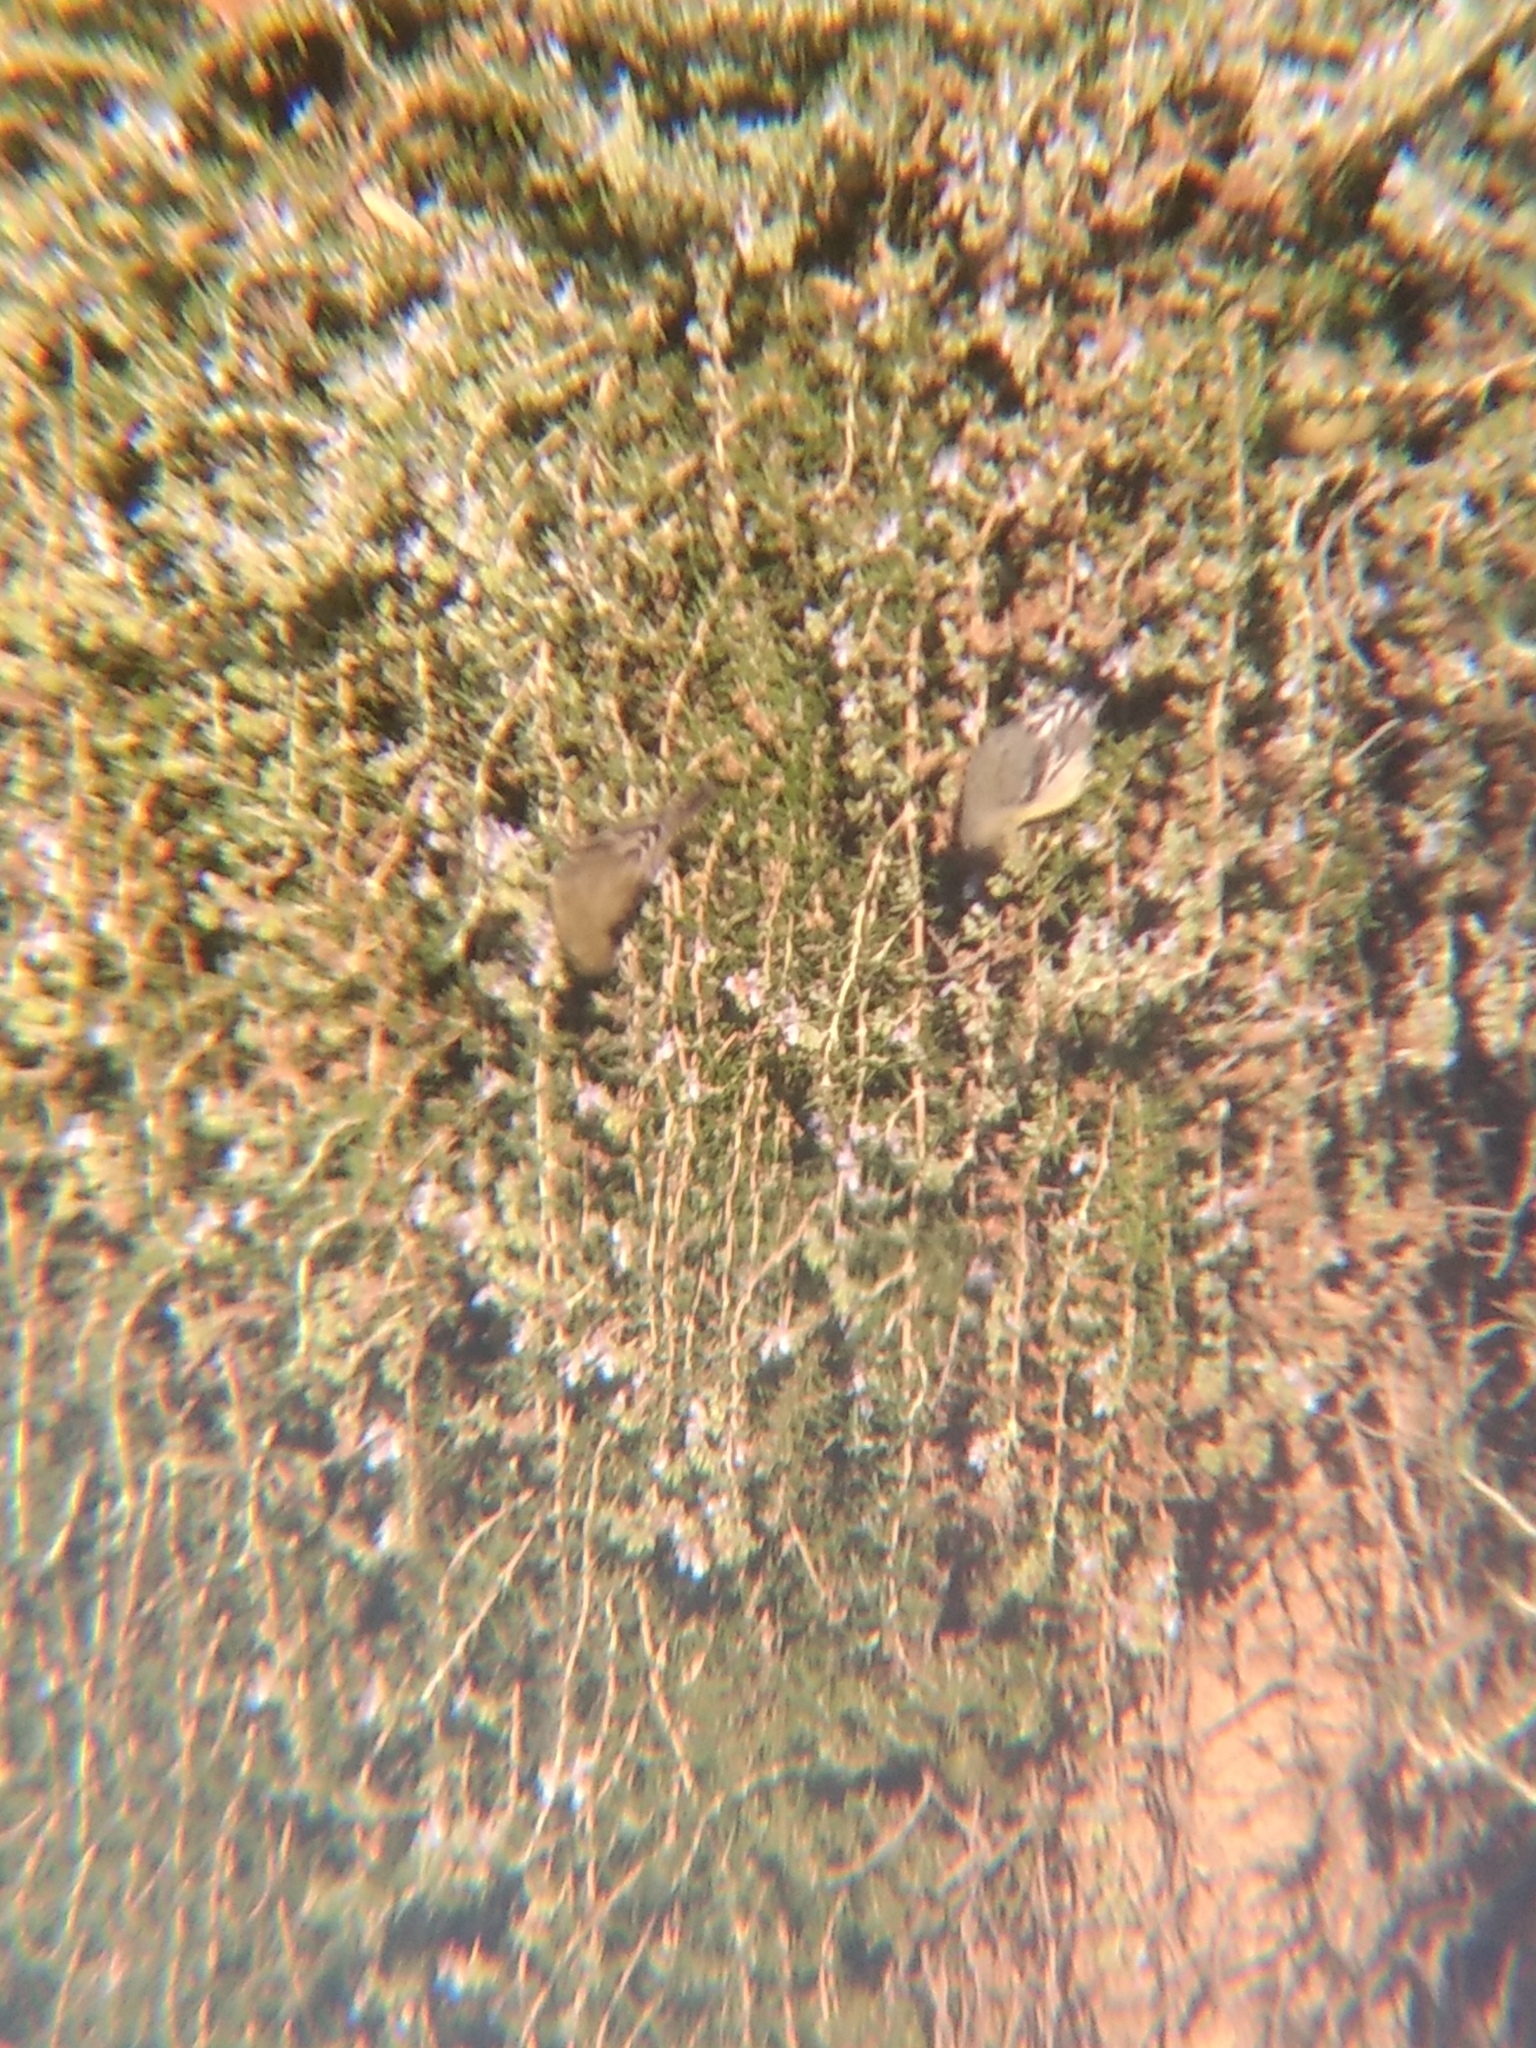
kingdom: Animalia
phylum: Chordata
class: Aves
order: Passeriformes
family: Fringillidae
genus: Spinus
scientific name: Spinus psaltria
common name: Lesser goldfinch
